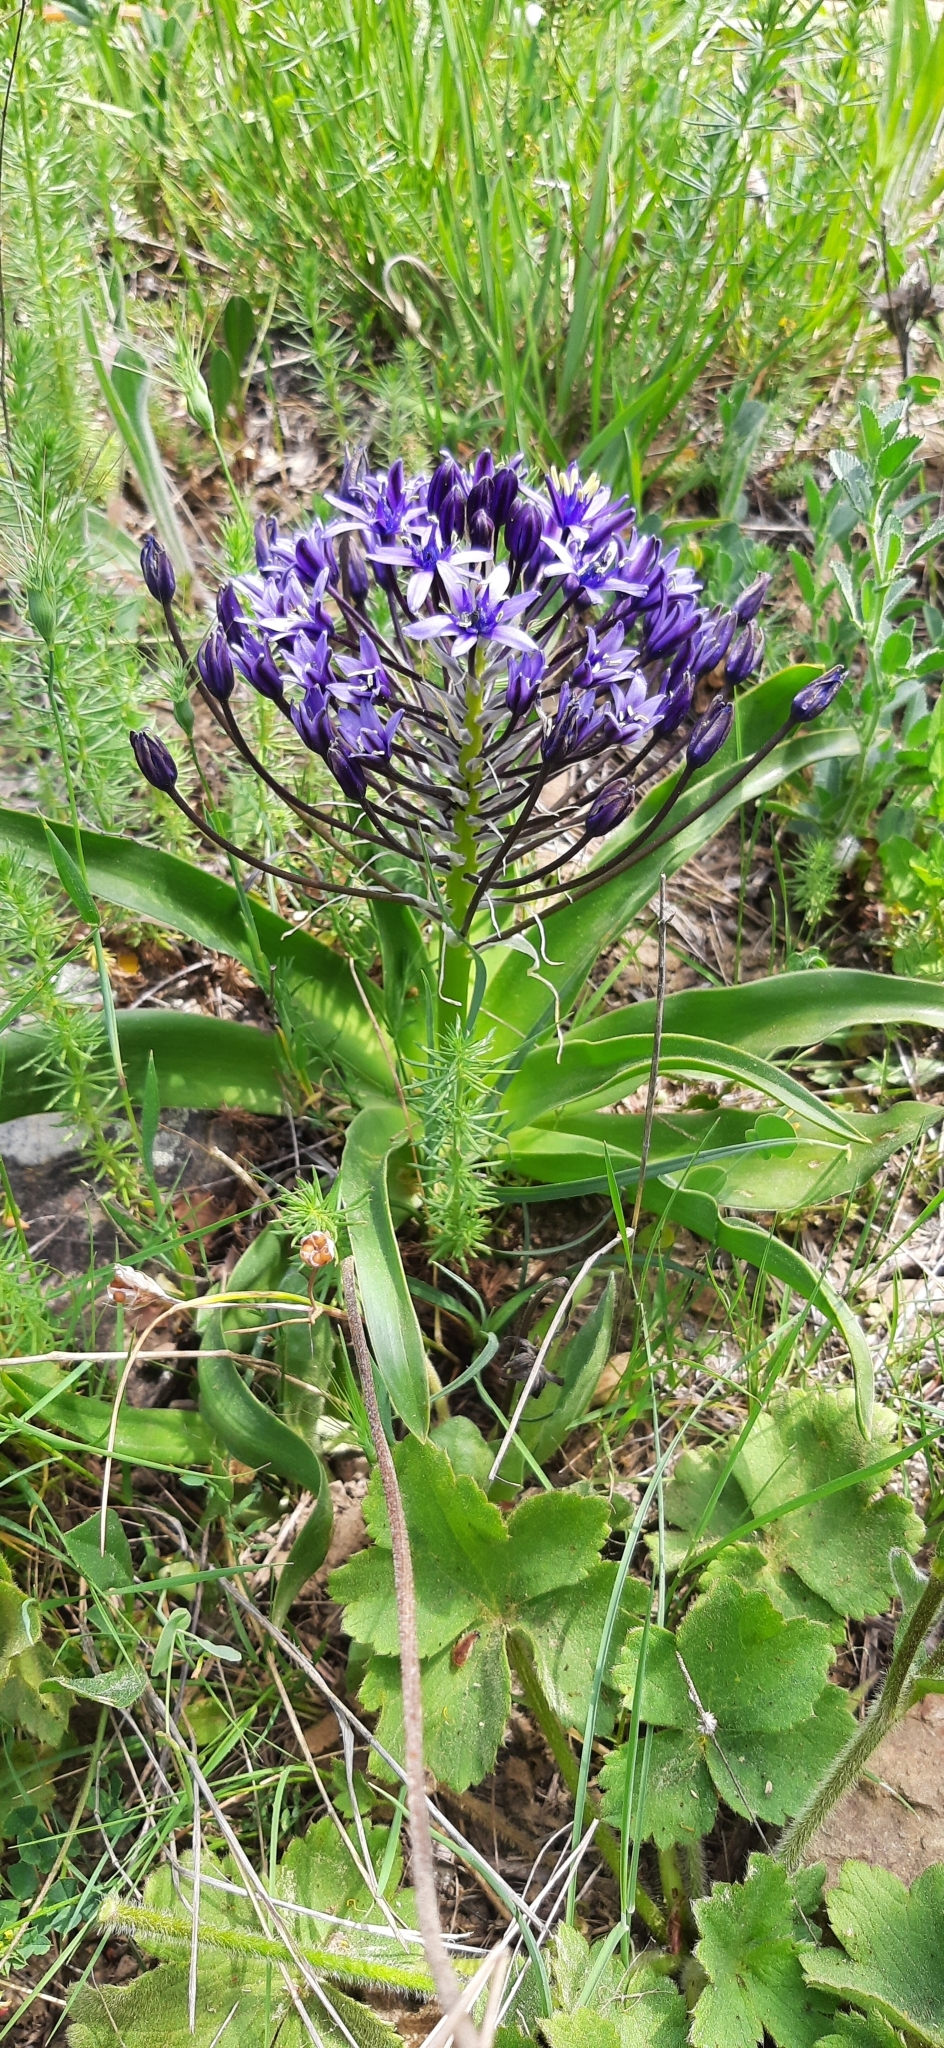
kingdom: Plantae
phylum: Tracheophyta
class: Liliopsida
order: Asparagales
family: Asparagaceae
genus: Scilla
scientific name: Scilla peruviana
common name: Portuguese squill
